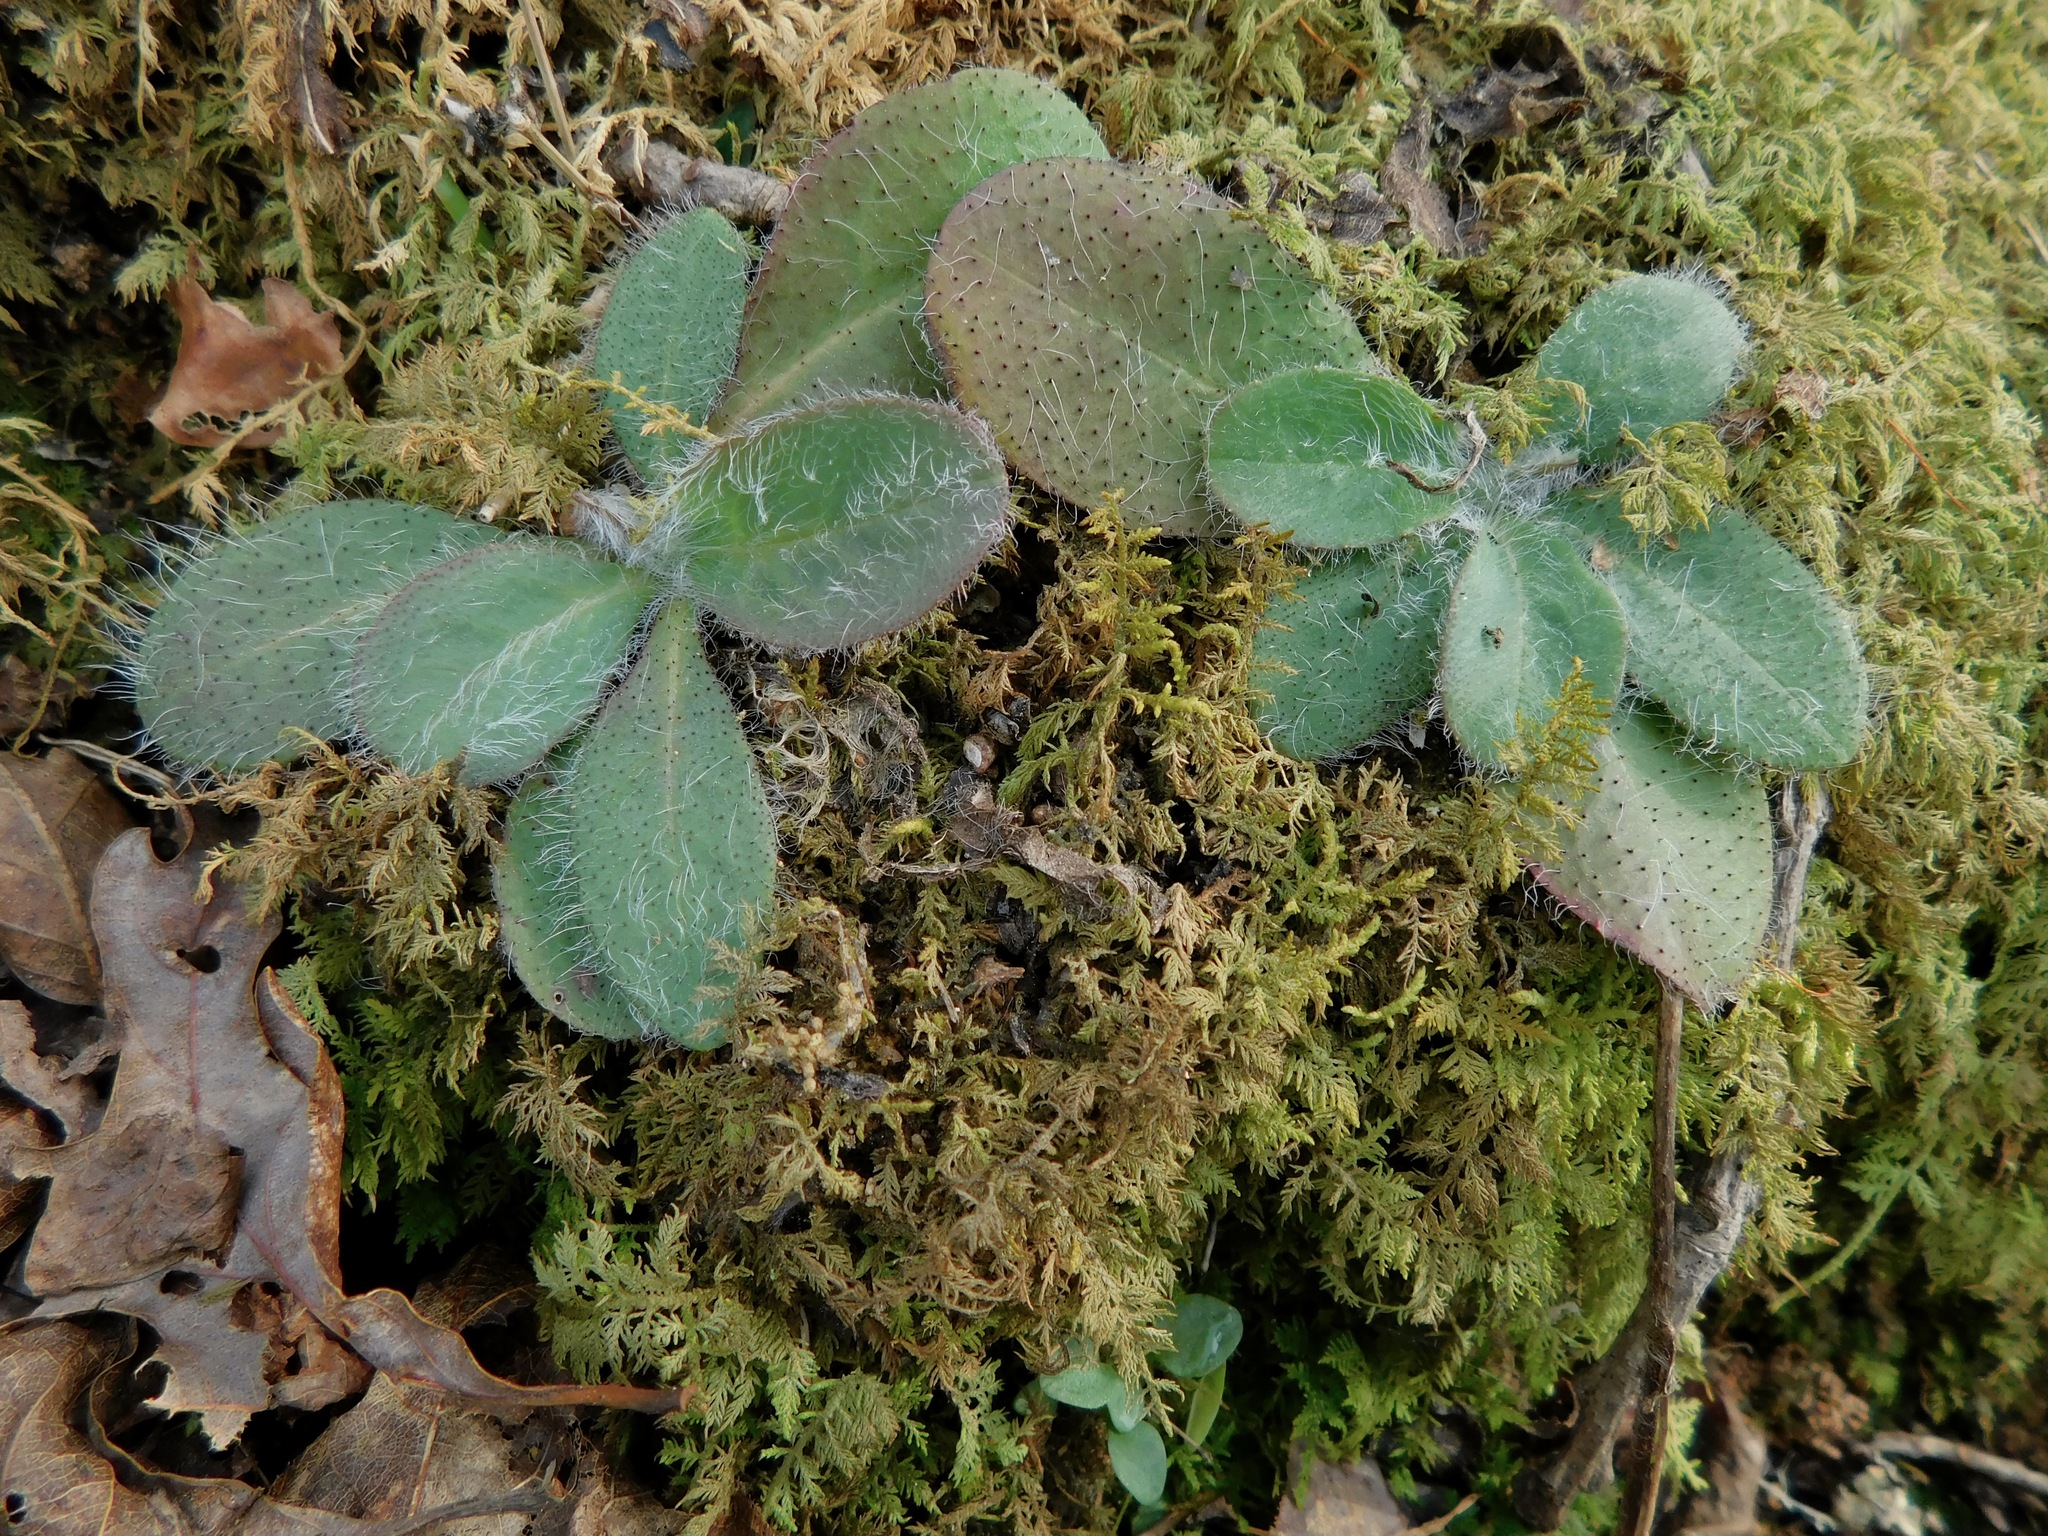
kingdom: Plantae
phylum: Tracheophyta
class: Magnoliopsida
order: Asterales
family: Asteraceae
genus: Hieracium
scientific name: Hieracium gronovii
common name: Beaked hawkweed
